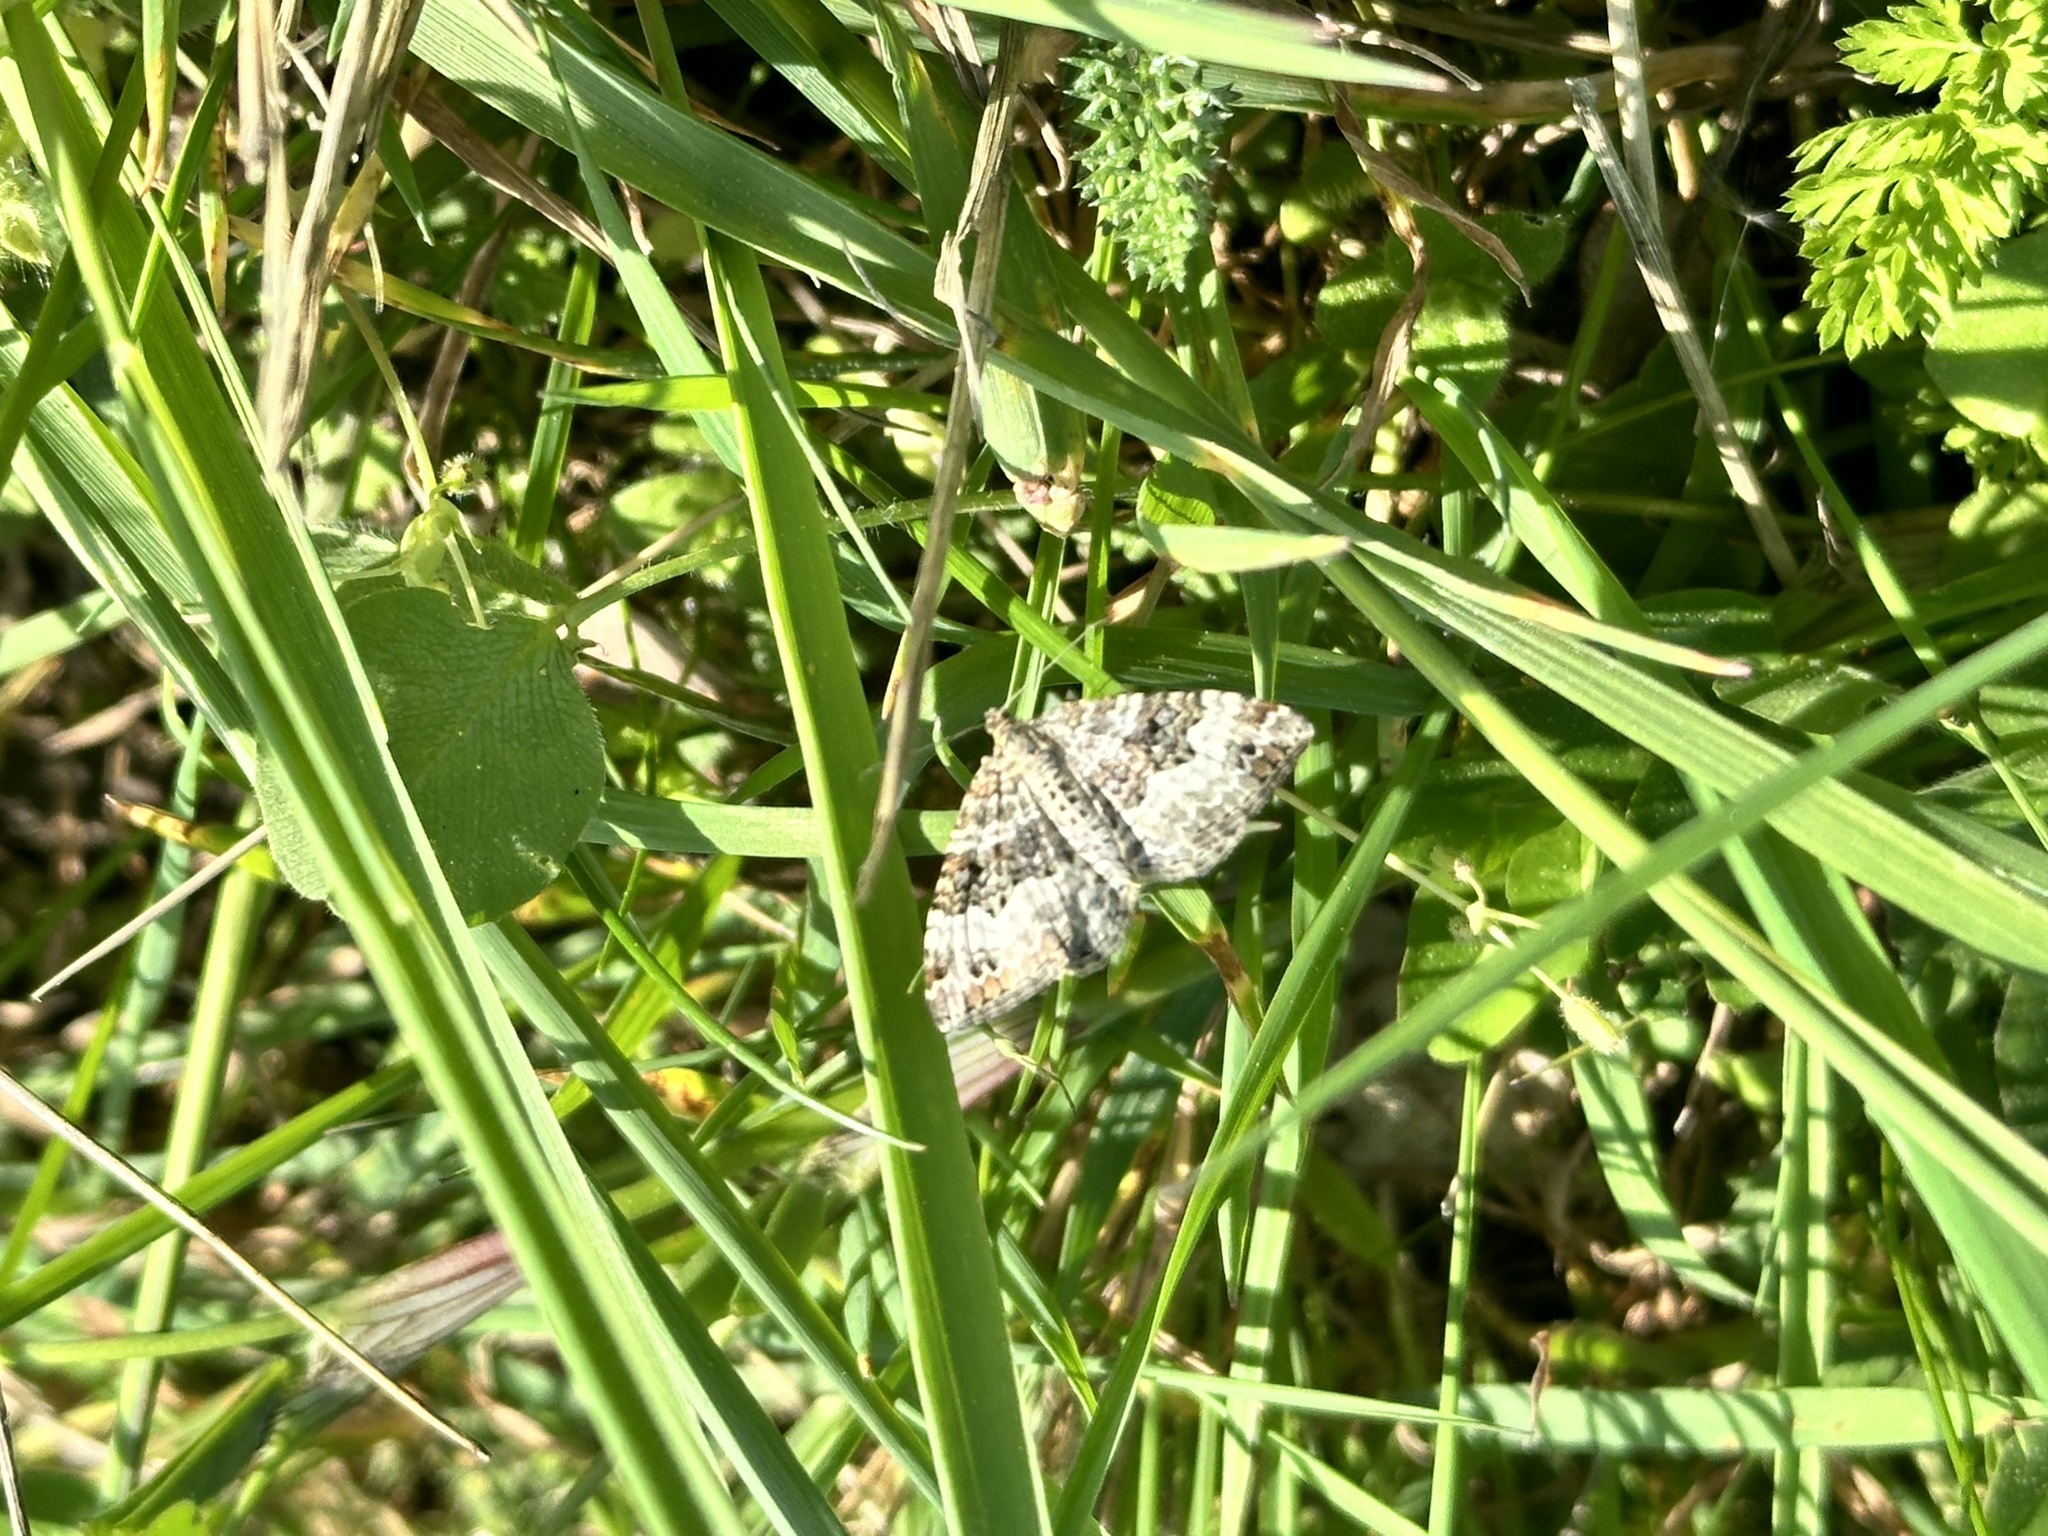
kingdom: Animalia
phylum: Arthropoda
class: Insecta
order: Lepidoptera
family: Geometridae
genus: Epirrhoe
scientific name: Epirrhoe alternata
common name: Common carpet
